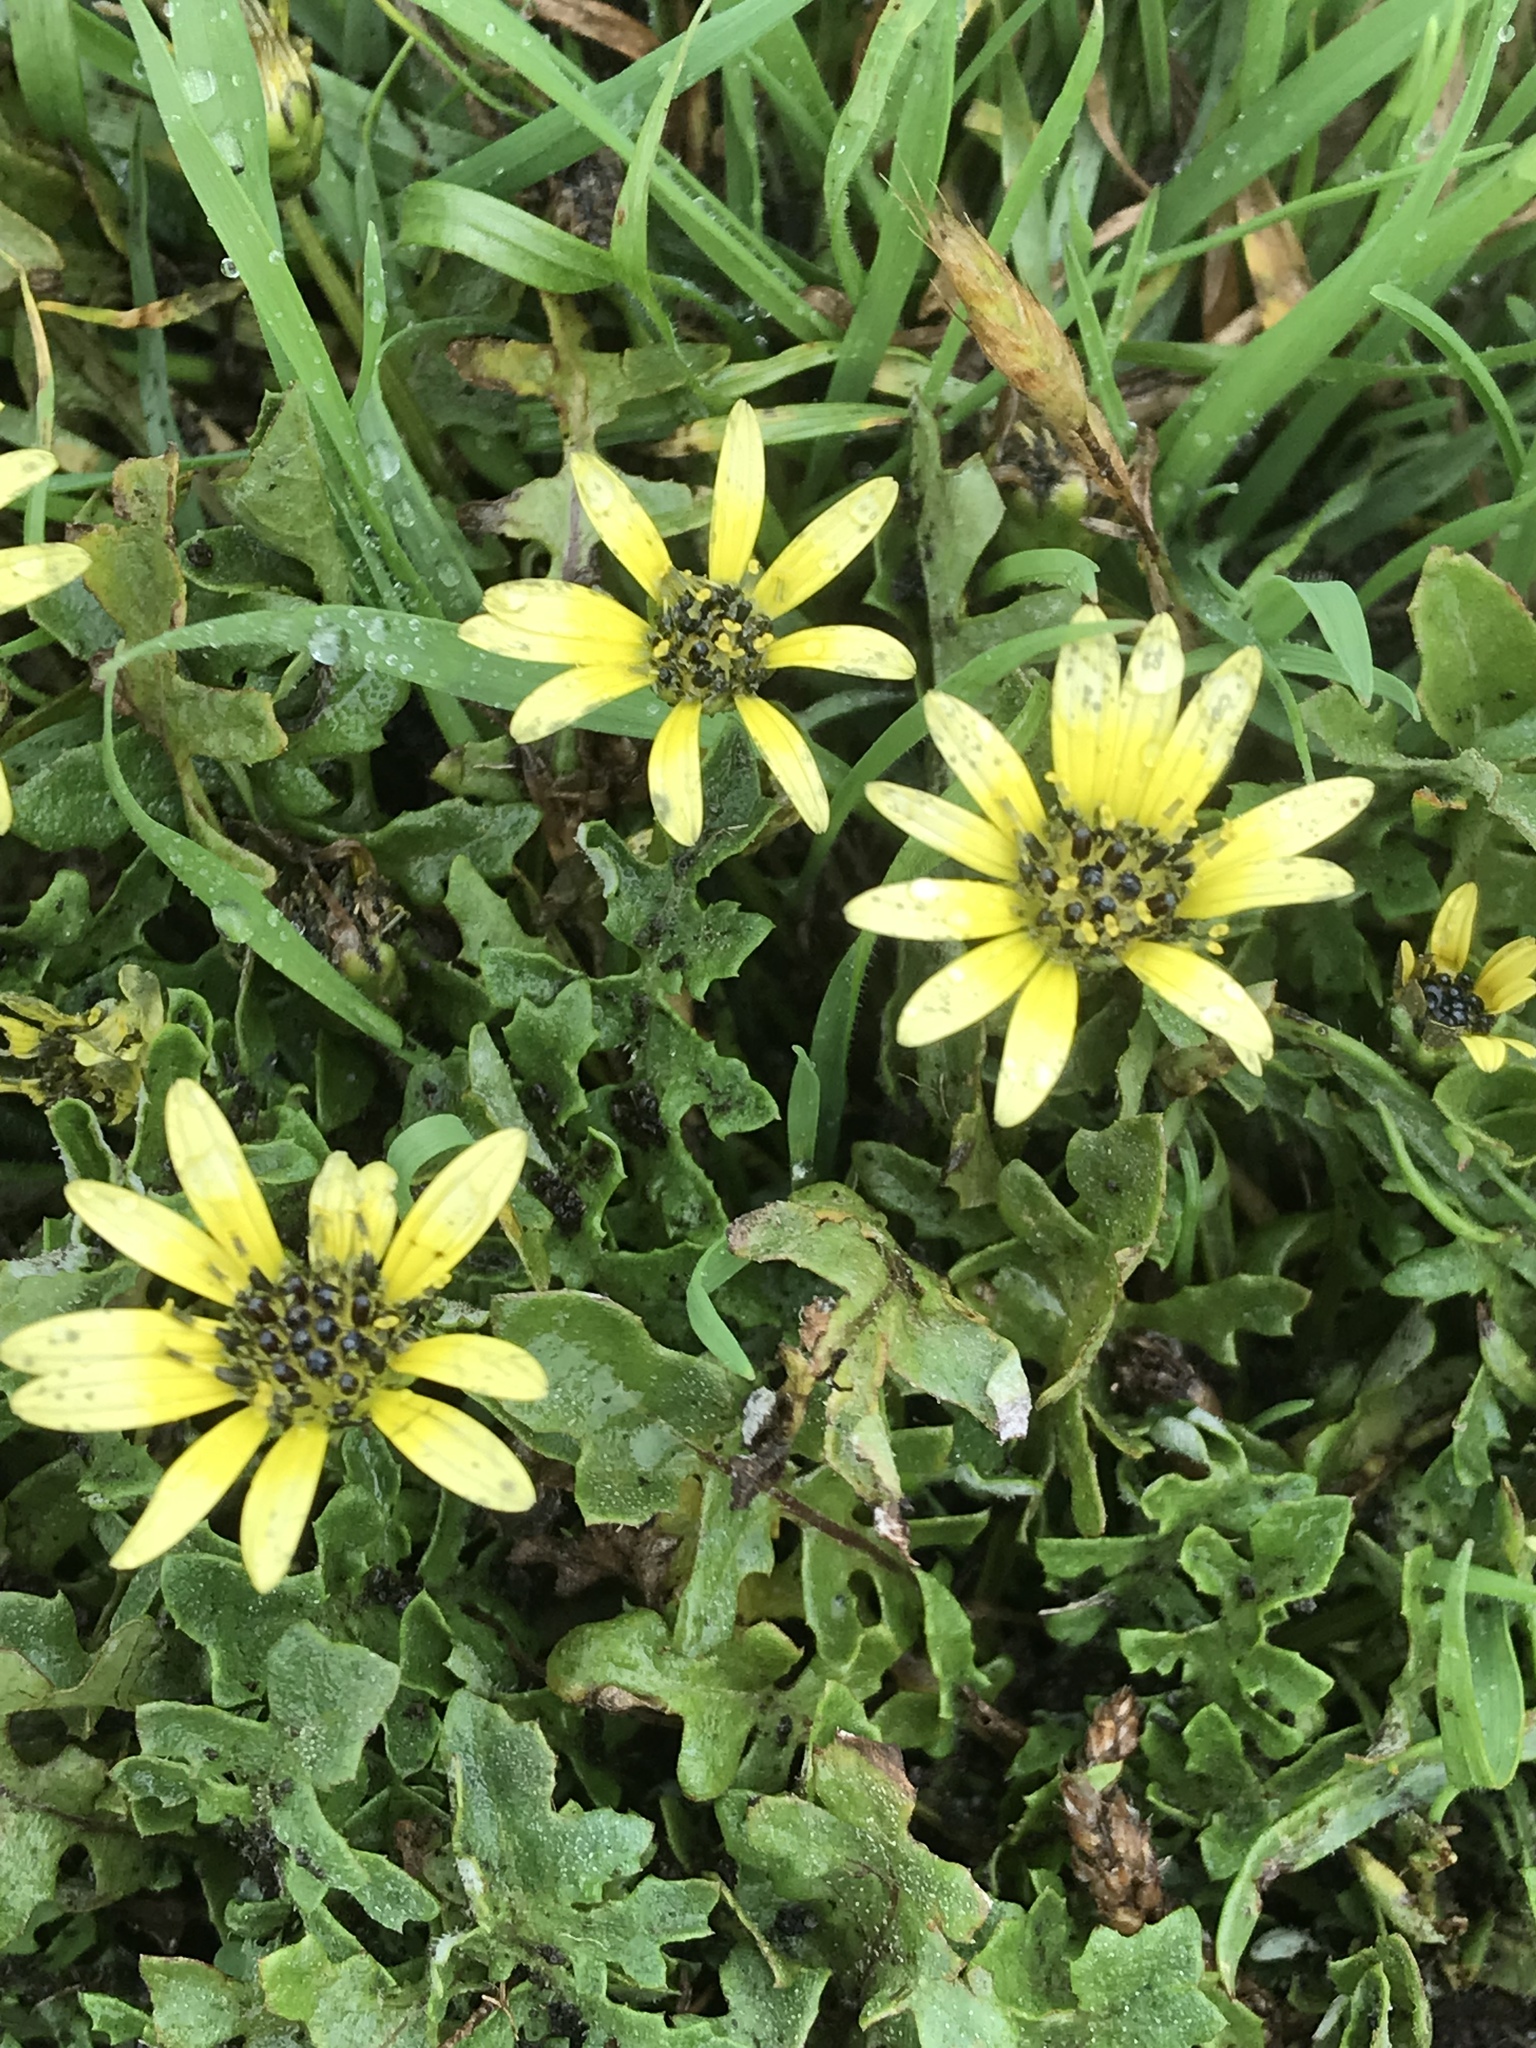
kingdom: Plantae
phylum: Tracheophyta
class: Magnoliopsida
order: Asterales
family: Asteraceae
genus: Arctotheca
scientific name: Arctotheca calendula
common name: Capeweed
